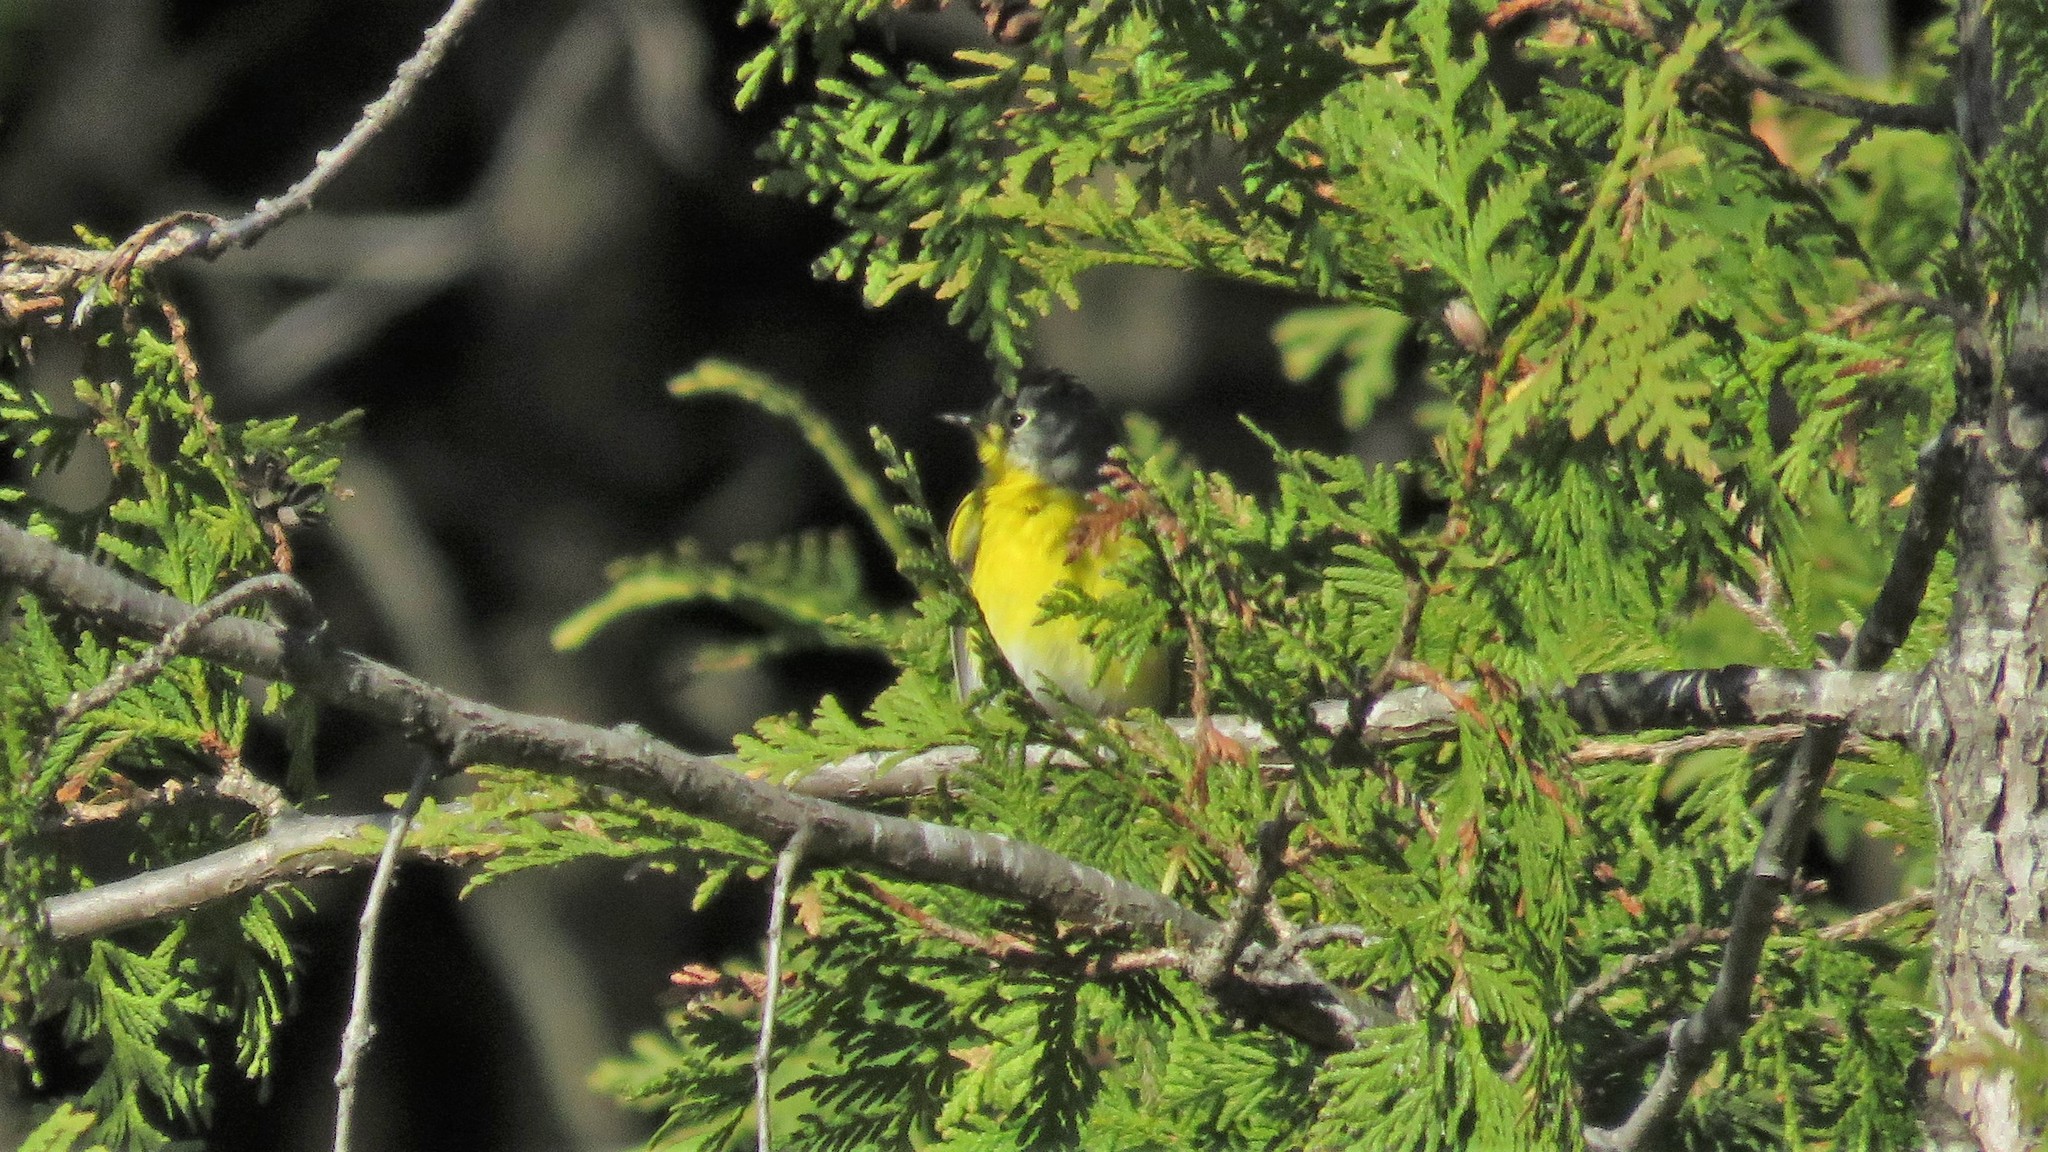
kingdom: Animalia
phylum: Chordata
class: Aves
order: Passeriformes
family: Parulidae
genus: Leiothlypis
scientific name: Leiothlypis ruficapilla
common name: Nashville warbler
